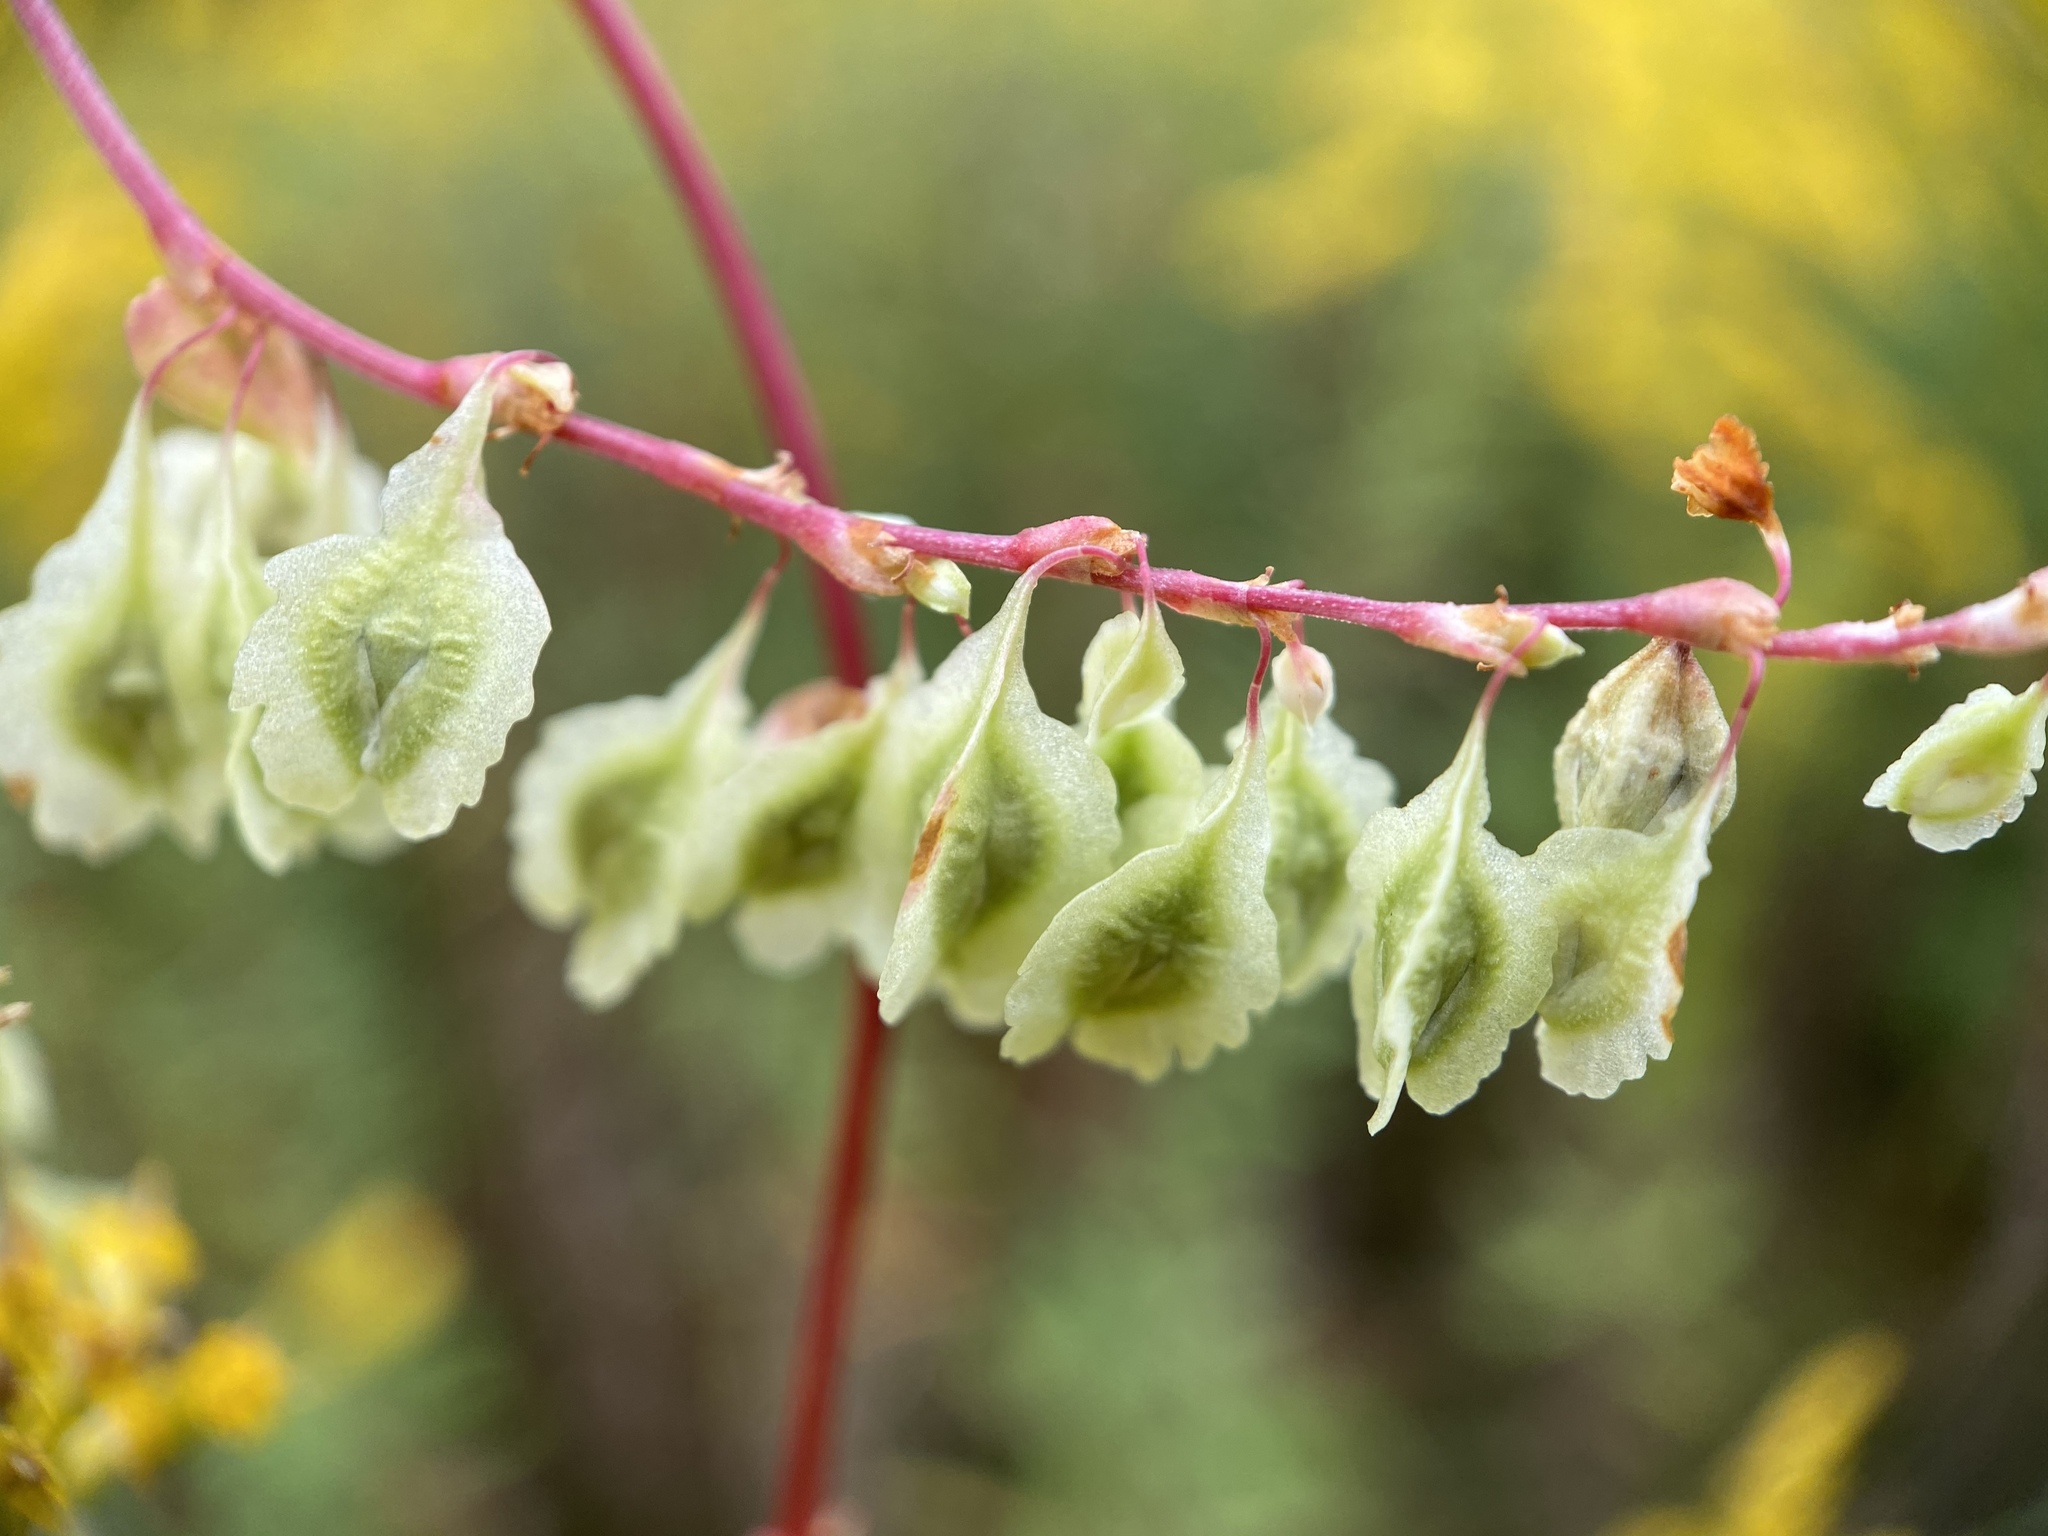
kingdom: Plantae
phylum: Tracheophyta
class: Magnoliopsida
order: Caryophyllales
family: Polygonaceae
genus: Fallopia
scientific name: Fallopia scandens
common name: Climbing false buckwheat
